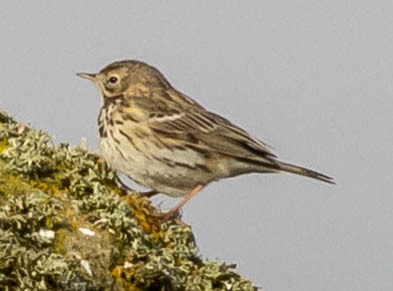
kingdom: Animalia
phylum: Chordata
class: Aves
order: Passeriformes
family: Motacillidae
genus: Anthus
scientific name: Anthus pratensis
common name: Meadow pipit
